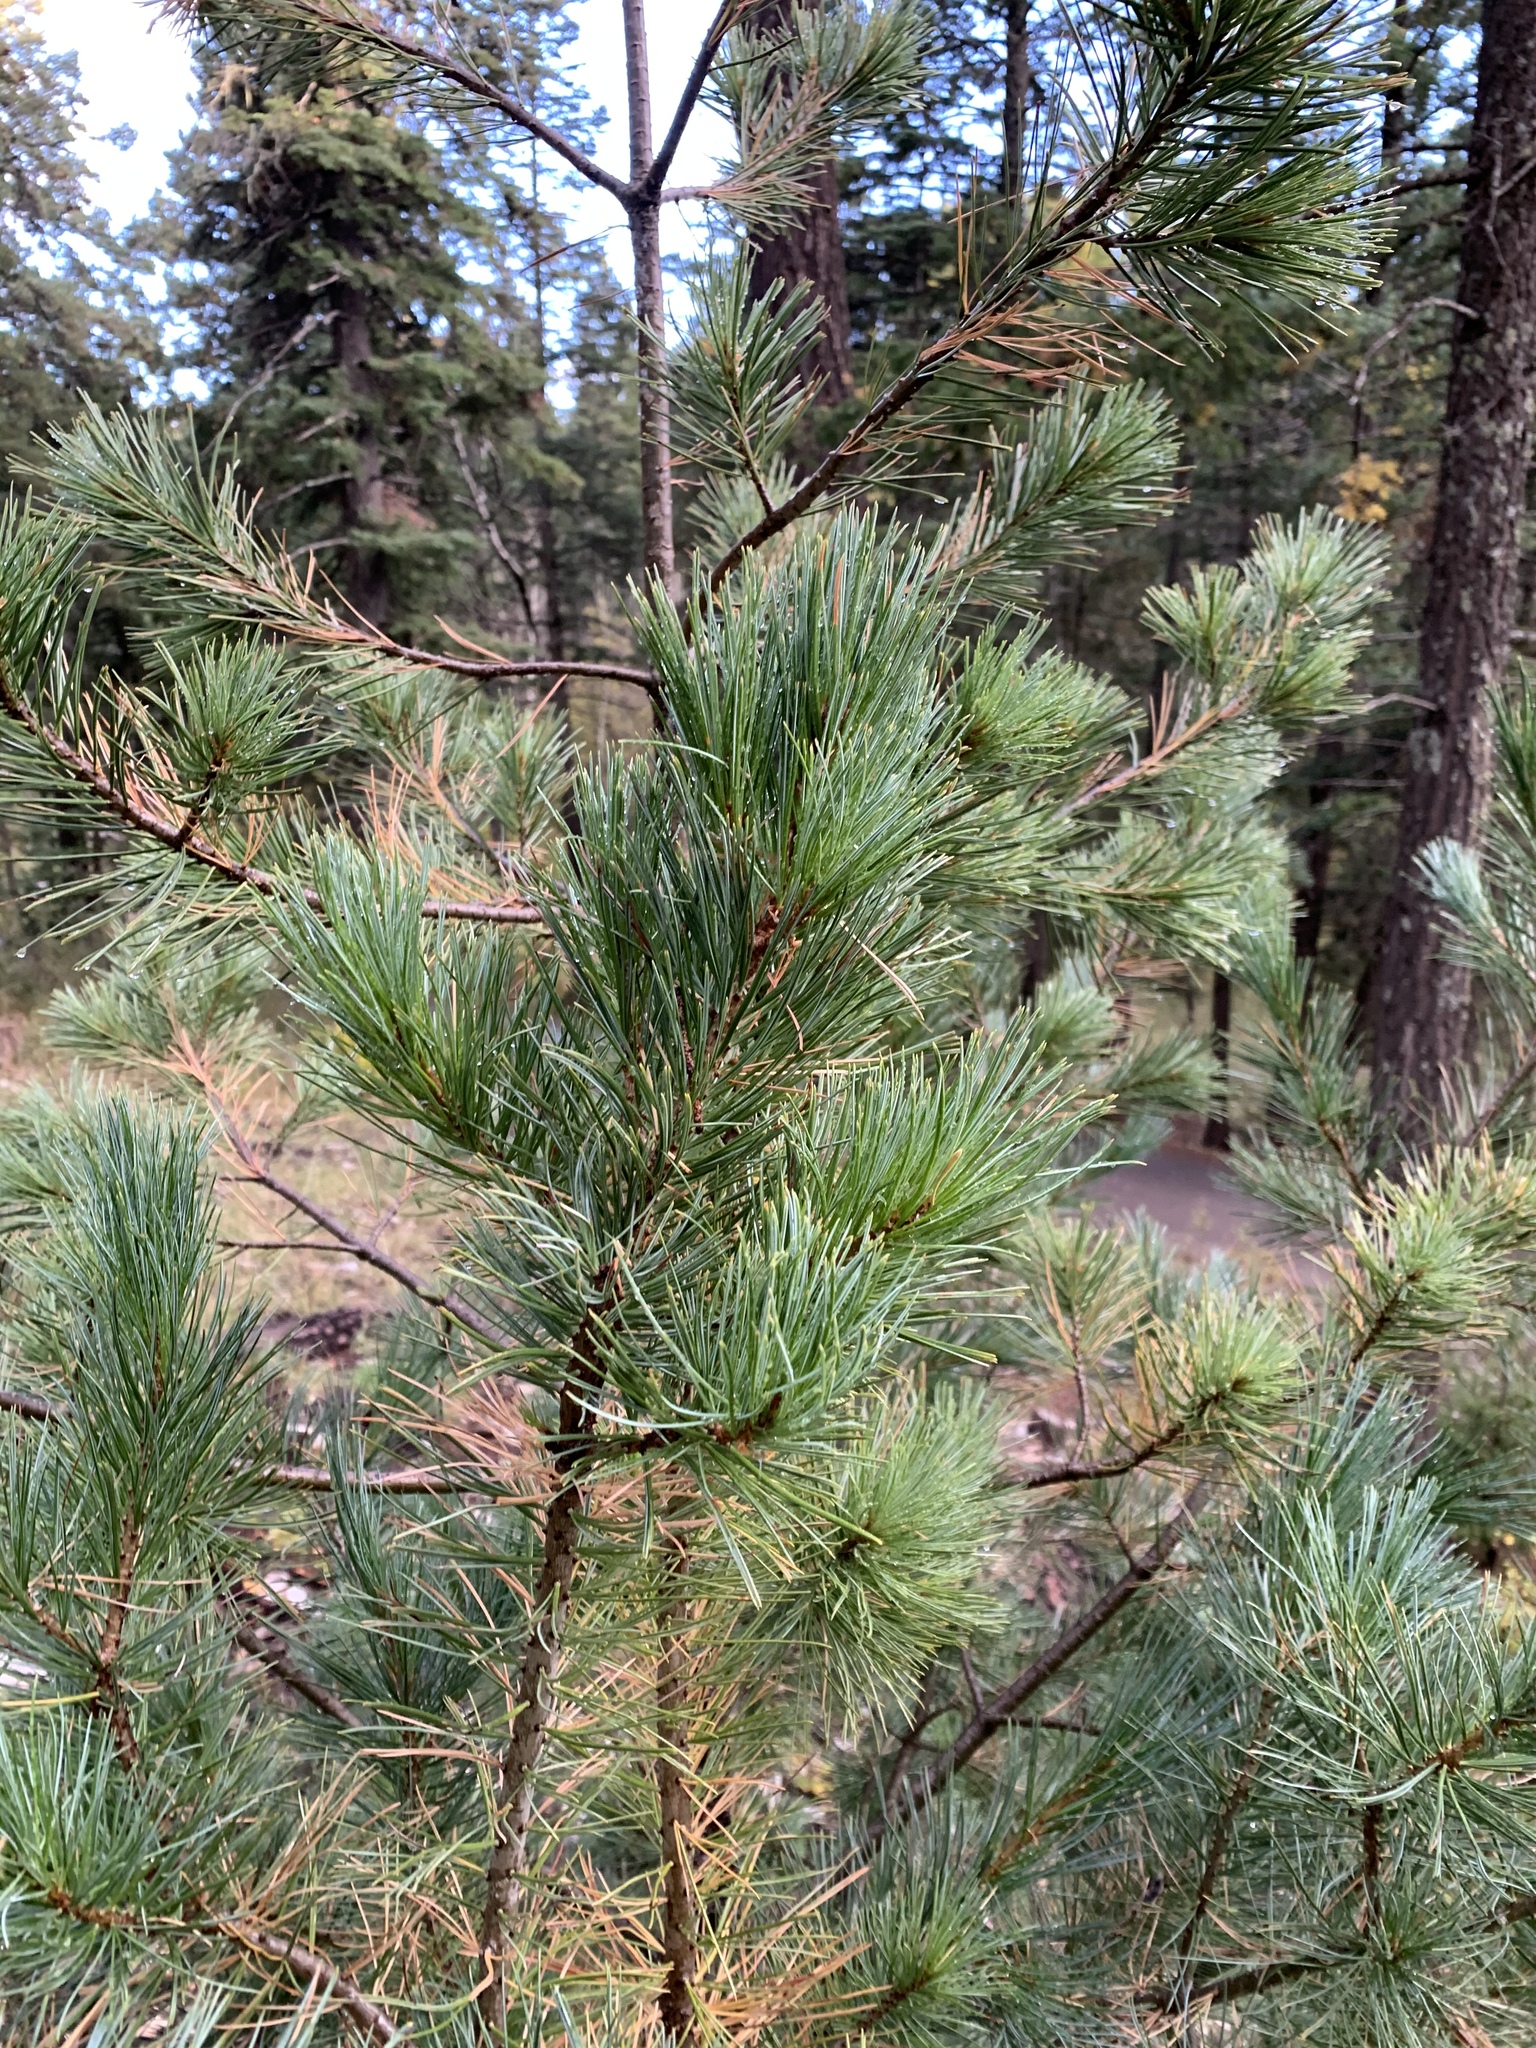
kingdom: Plantae
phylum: Tracheophyta
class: Pinopsida
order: Pinales
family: Pinaceae
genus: Pinus
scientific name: Pinus strobiformis
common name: Southwestern white pine
